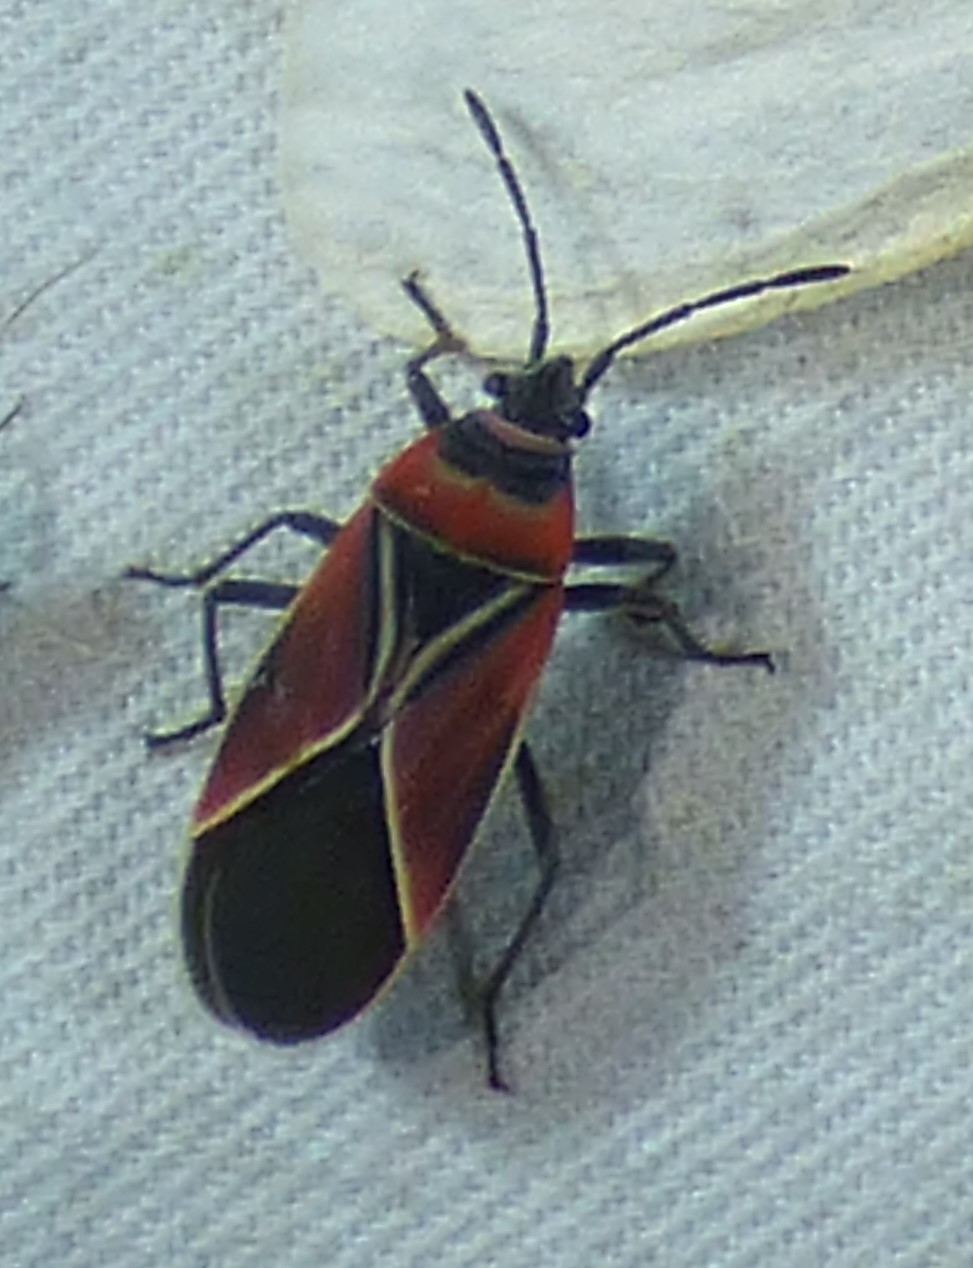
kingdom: Animalia
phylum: Arthropoda
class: Insecta
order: Hemiptera
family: Lygaeidae
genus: Neacoryphus
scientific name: Neacoryphus bicrucis
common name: Lygaeid bug
